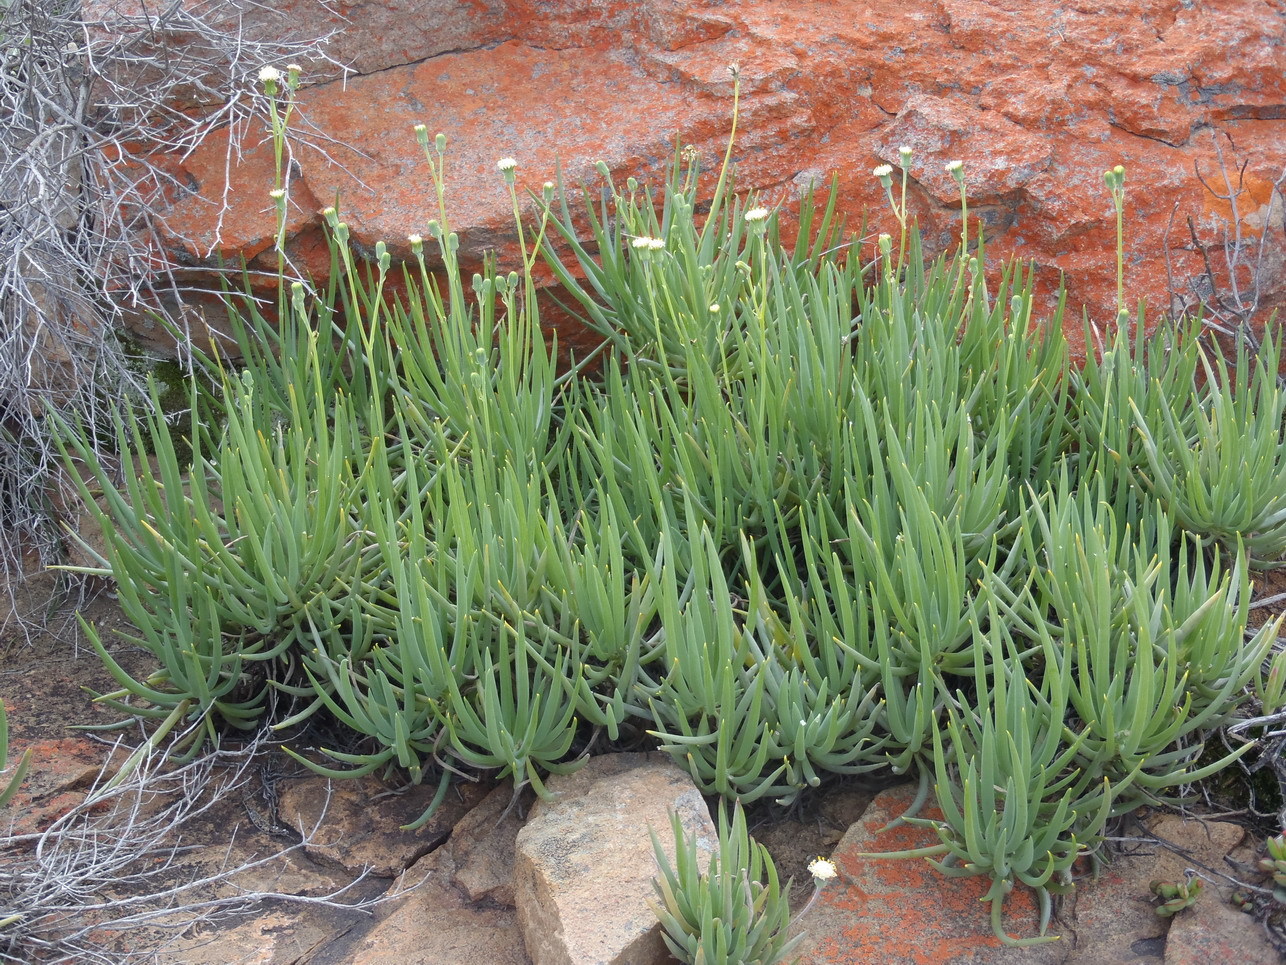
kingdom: Plantae
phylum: Tracheophyta
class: Magnoliopsida
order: Asterales
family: Asteraceae
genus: Curio
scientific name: Curio talinoides
